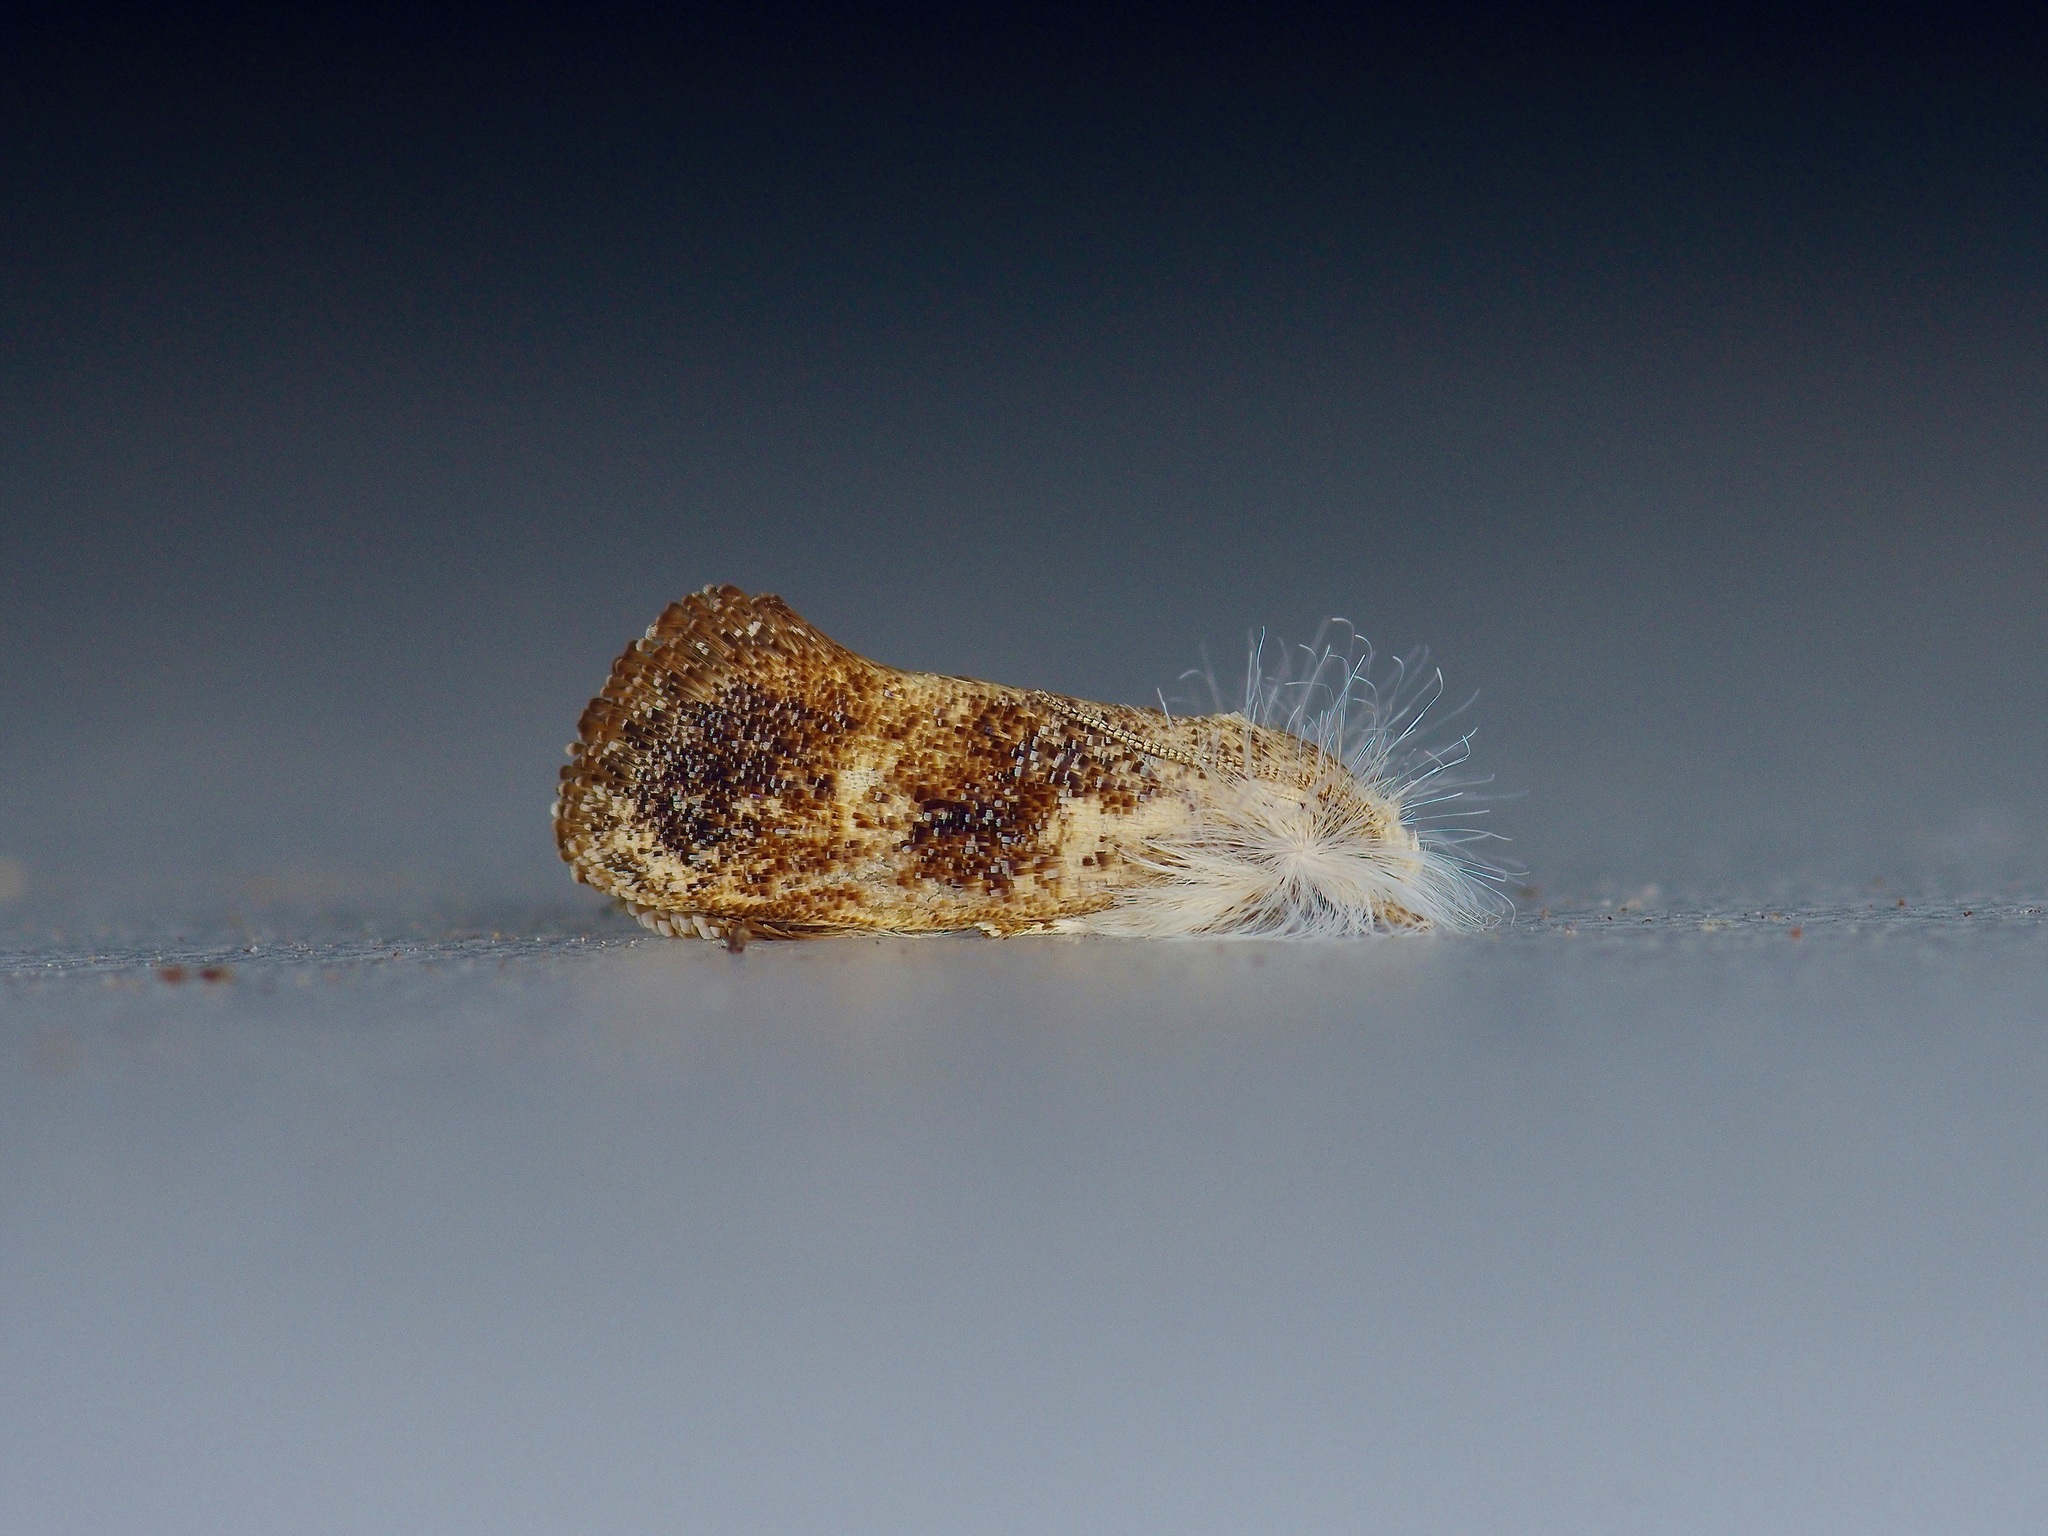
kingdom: Animalia
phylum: Arthropoda
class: Insecta
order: Lepidoptera
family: Tineidae
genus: Acrolophus
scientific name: Acrolophus mycetophagus
